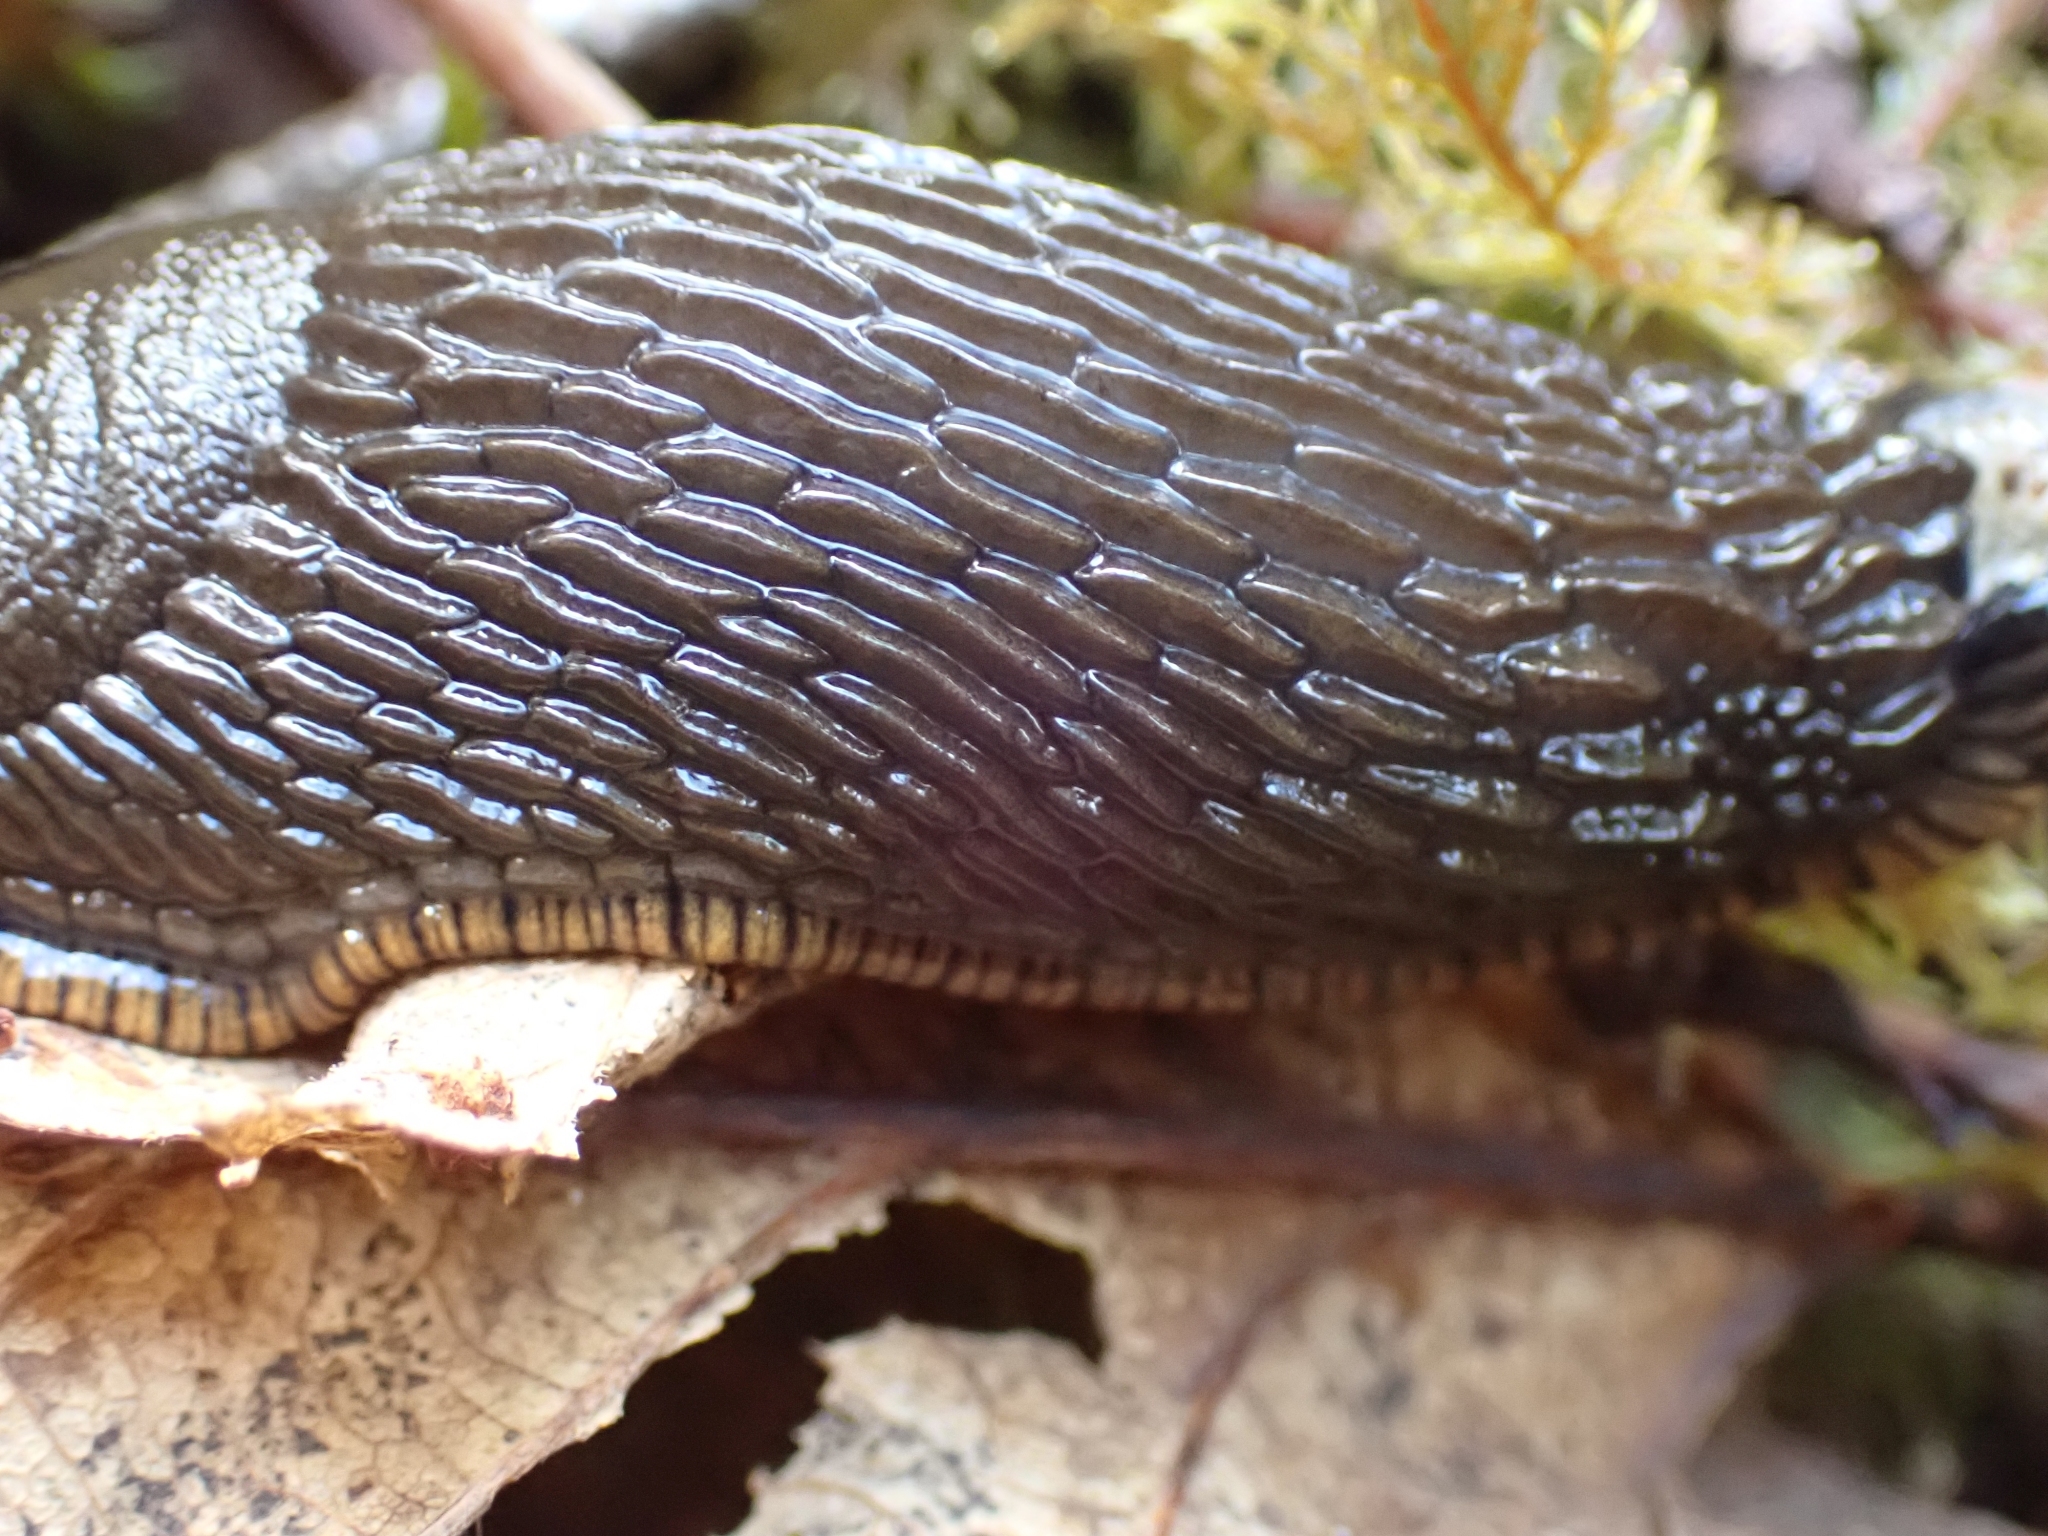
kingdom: Animalia
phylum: Mollusca
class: Gastropoda
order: Stylommatophora
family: Arionidae
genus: Arion
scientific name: Arion
